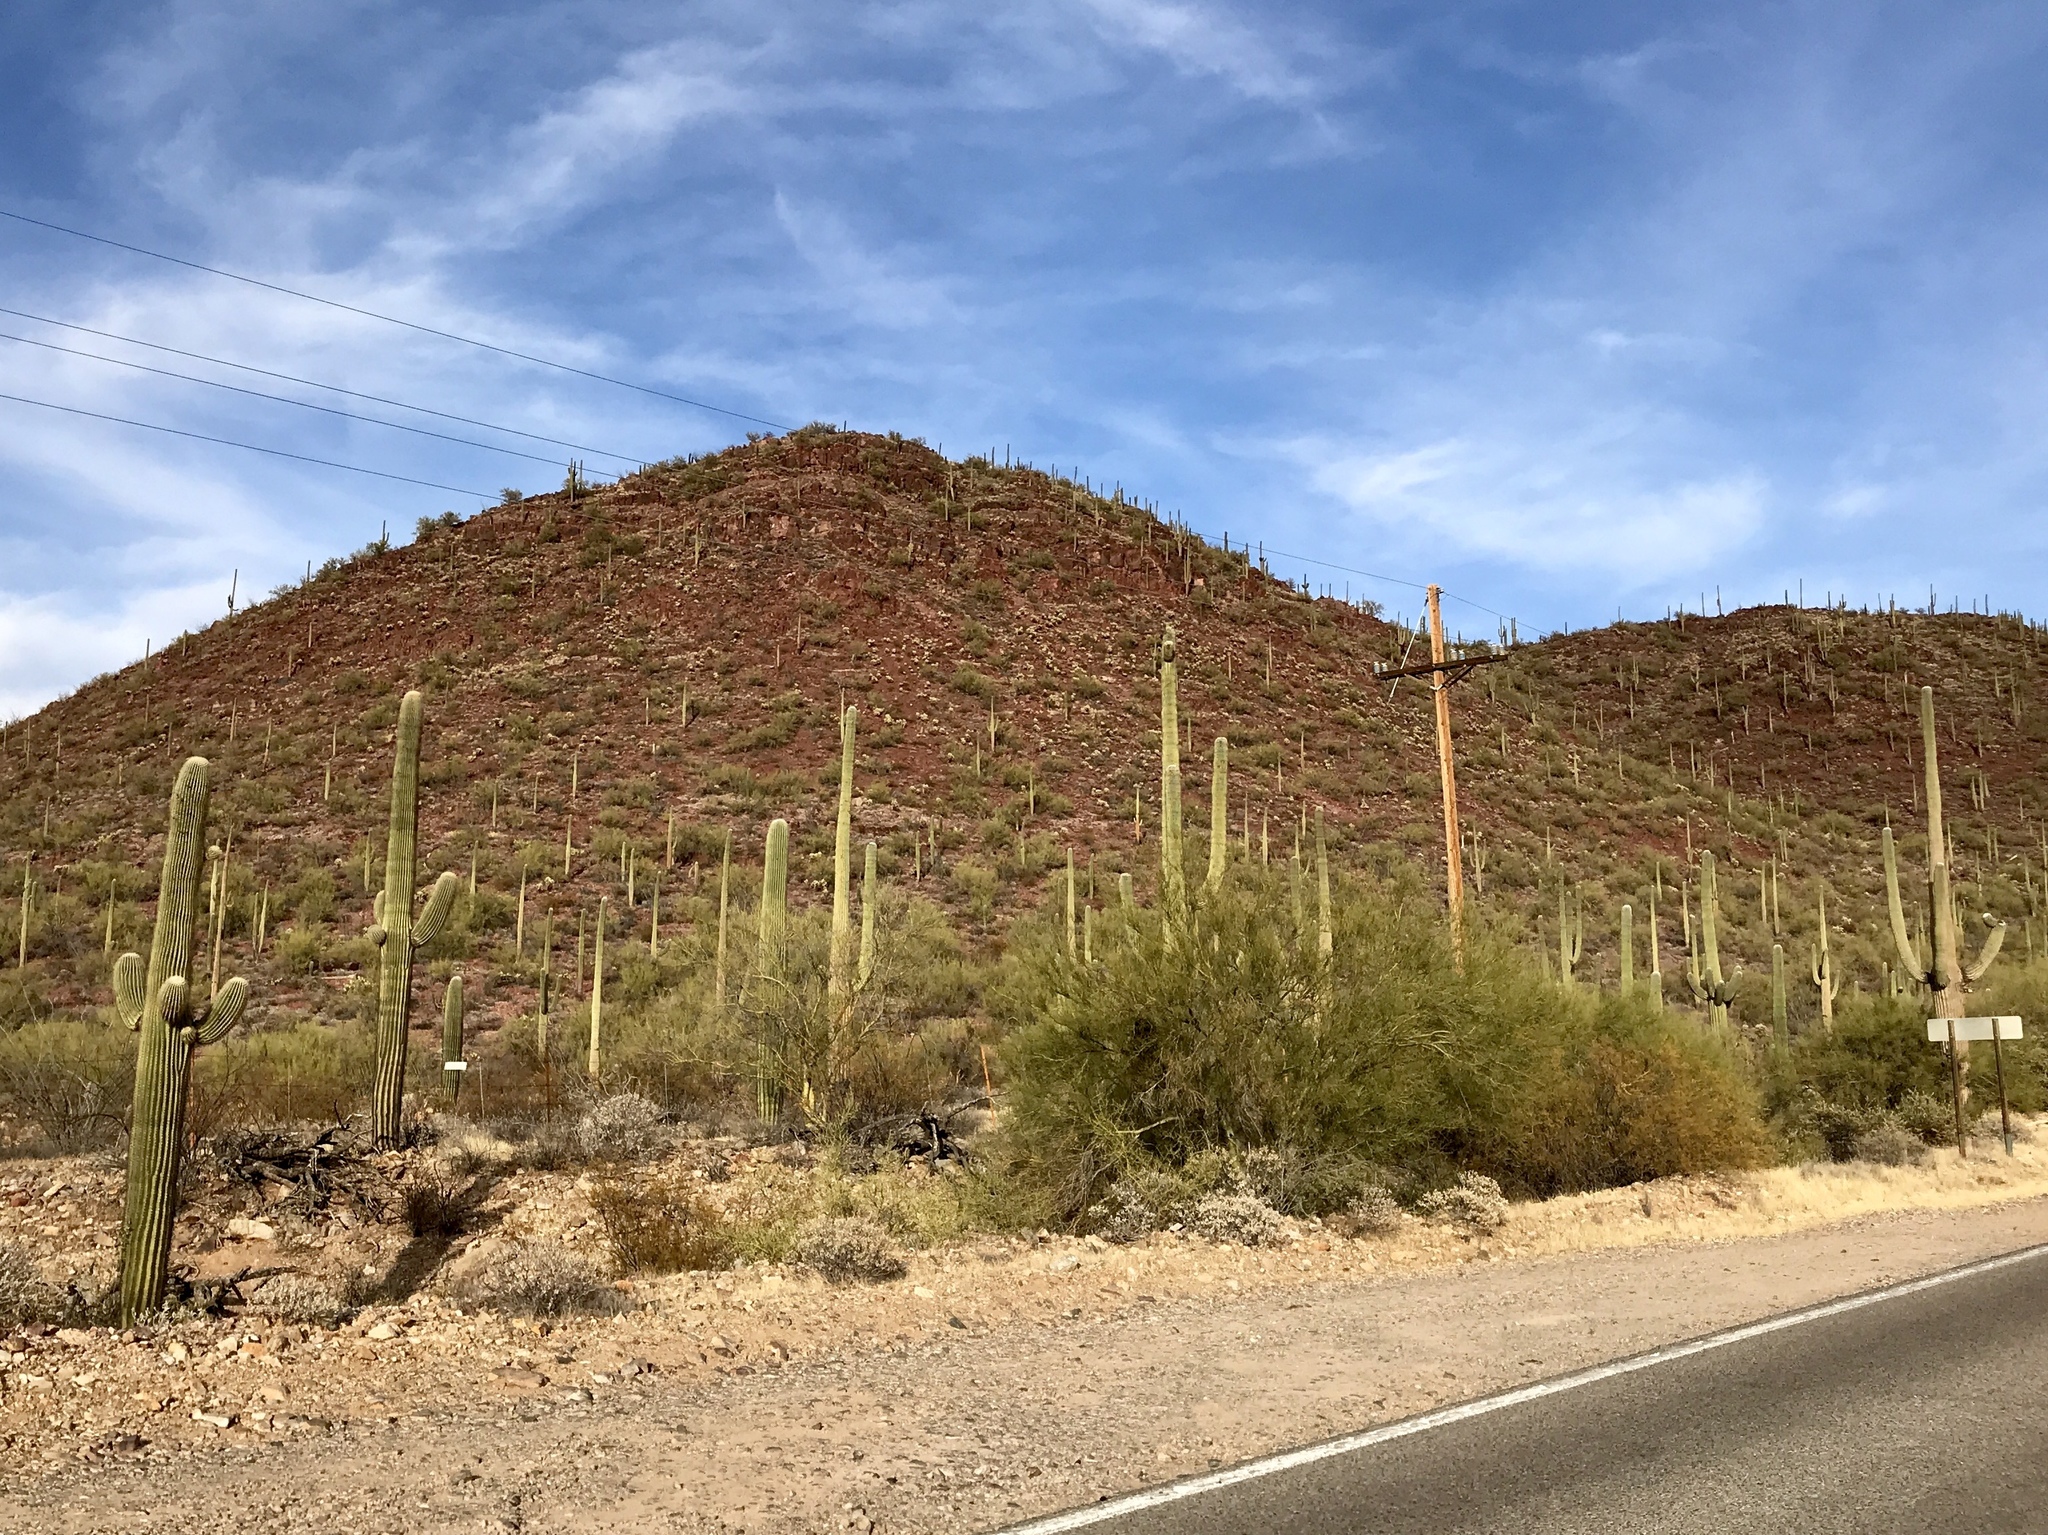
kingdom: Plantae
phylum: Tracheophyta
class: Magnoliopsida
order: Caryophyllales
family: Cactaceae
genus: Carnegiea
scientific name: Carnegiea gigantea
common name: Saguaro
